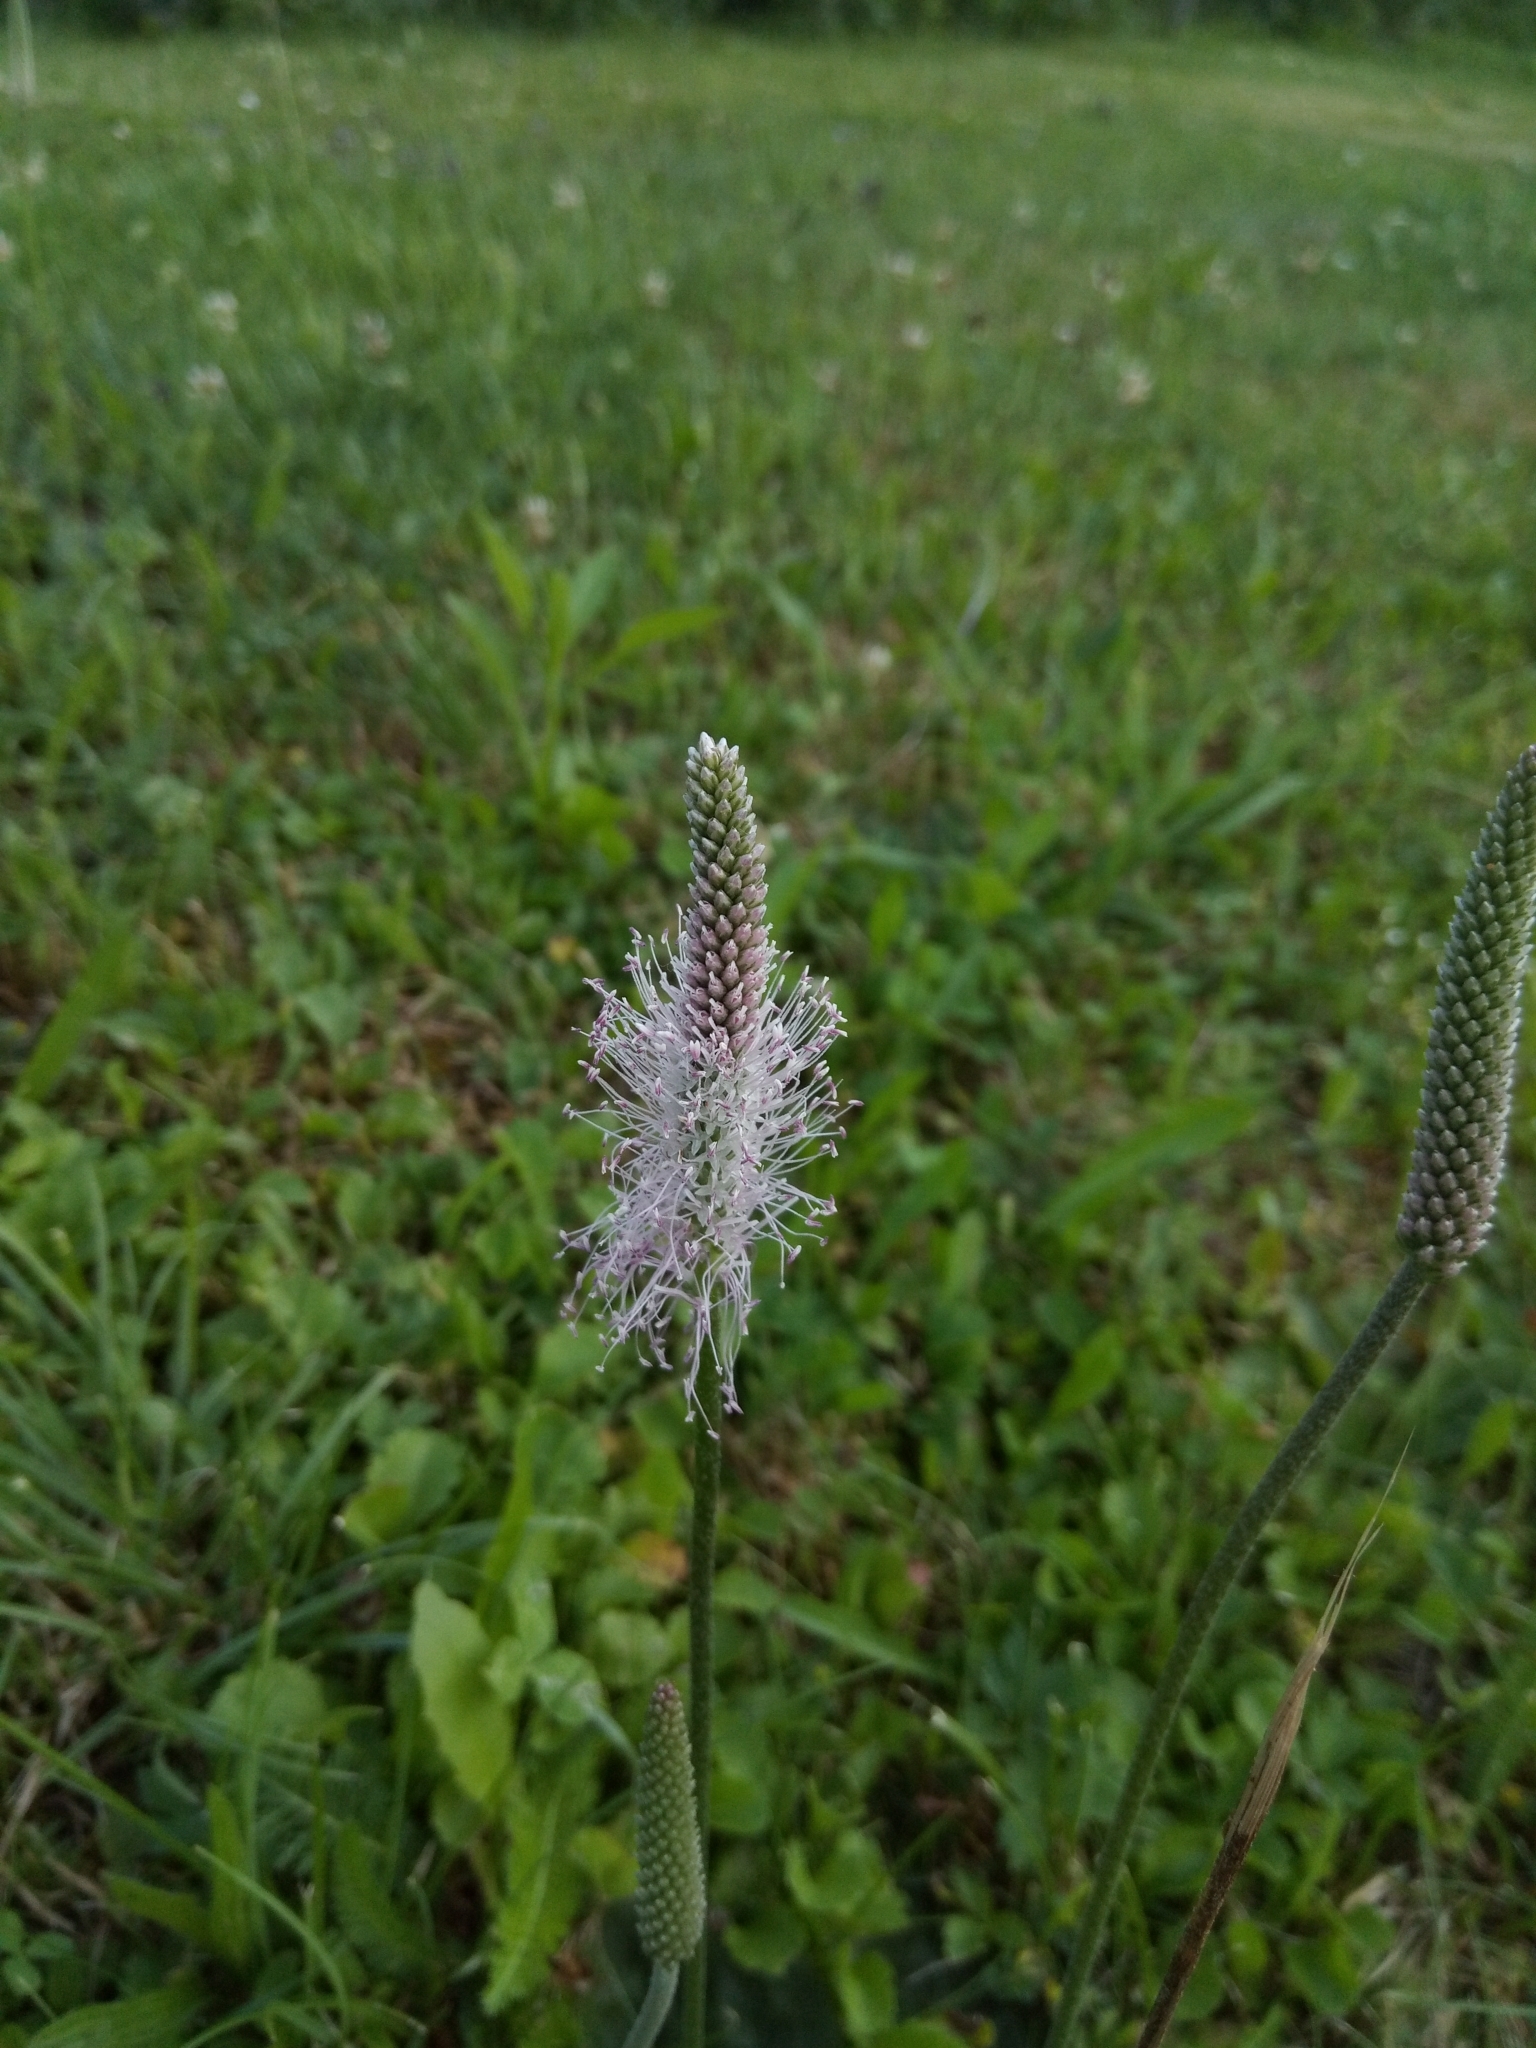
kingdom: Plantae
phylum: Tracheophyta
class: Magnoliopsida
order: Lamiales
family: Plantaginaceae
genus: Plantago
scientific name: Plantago media
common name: Hoary plantain
